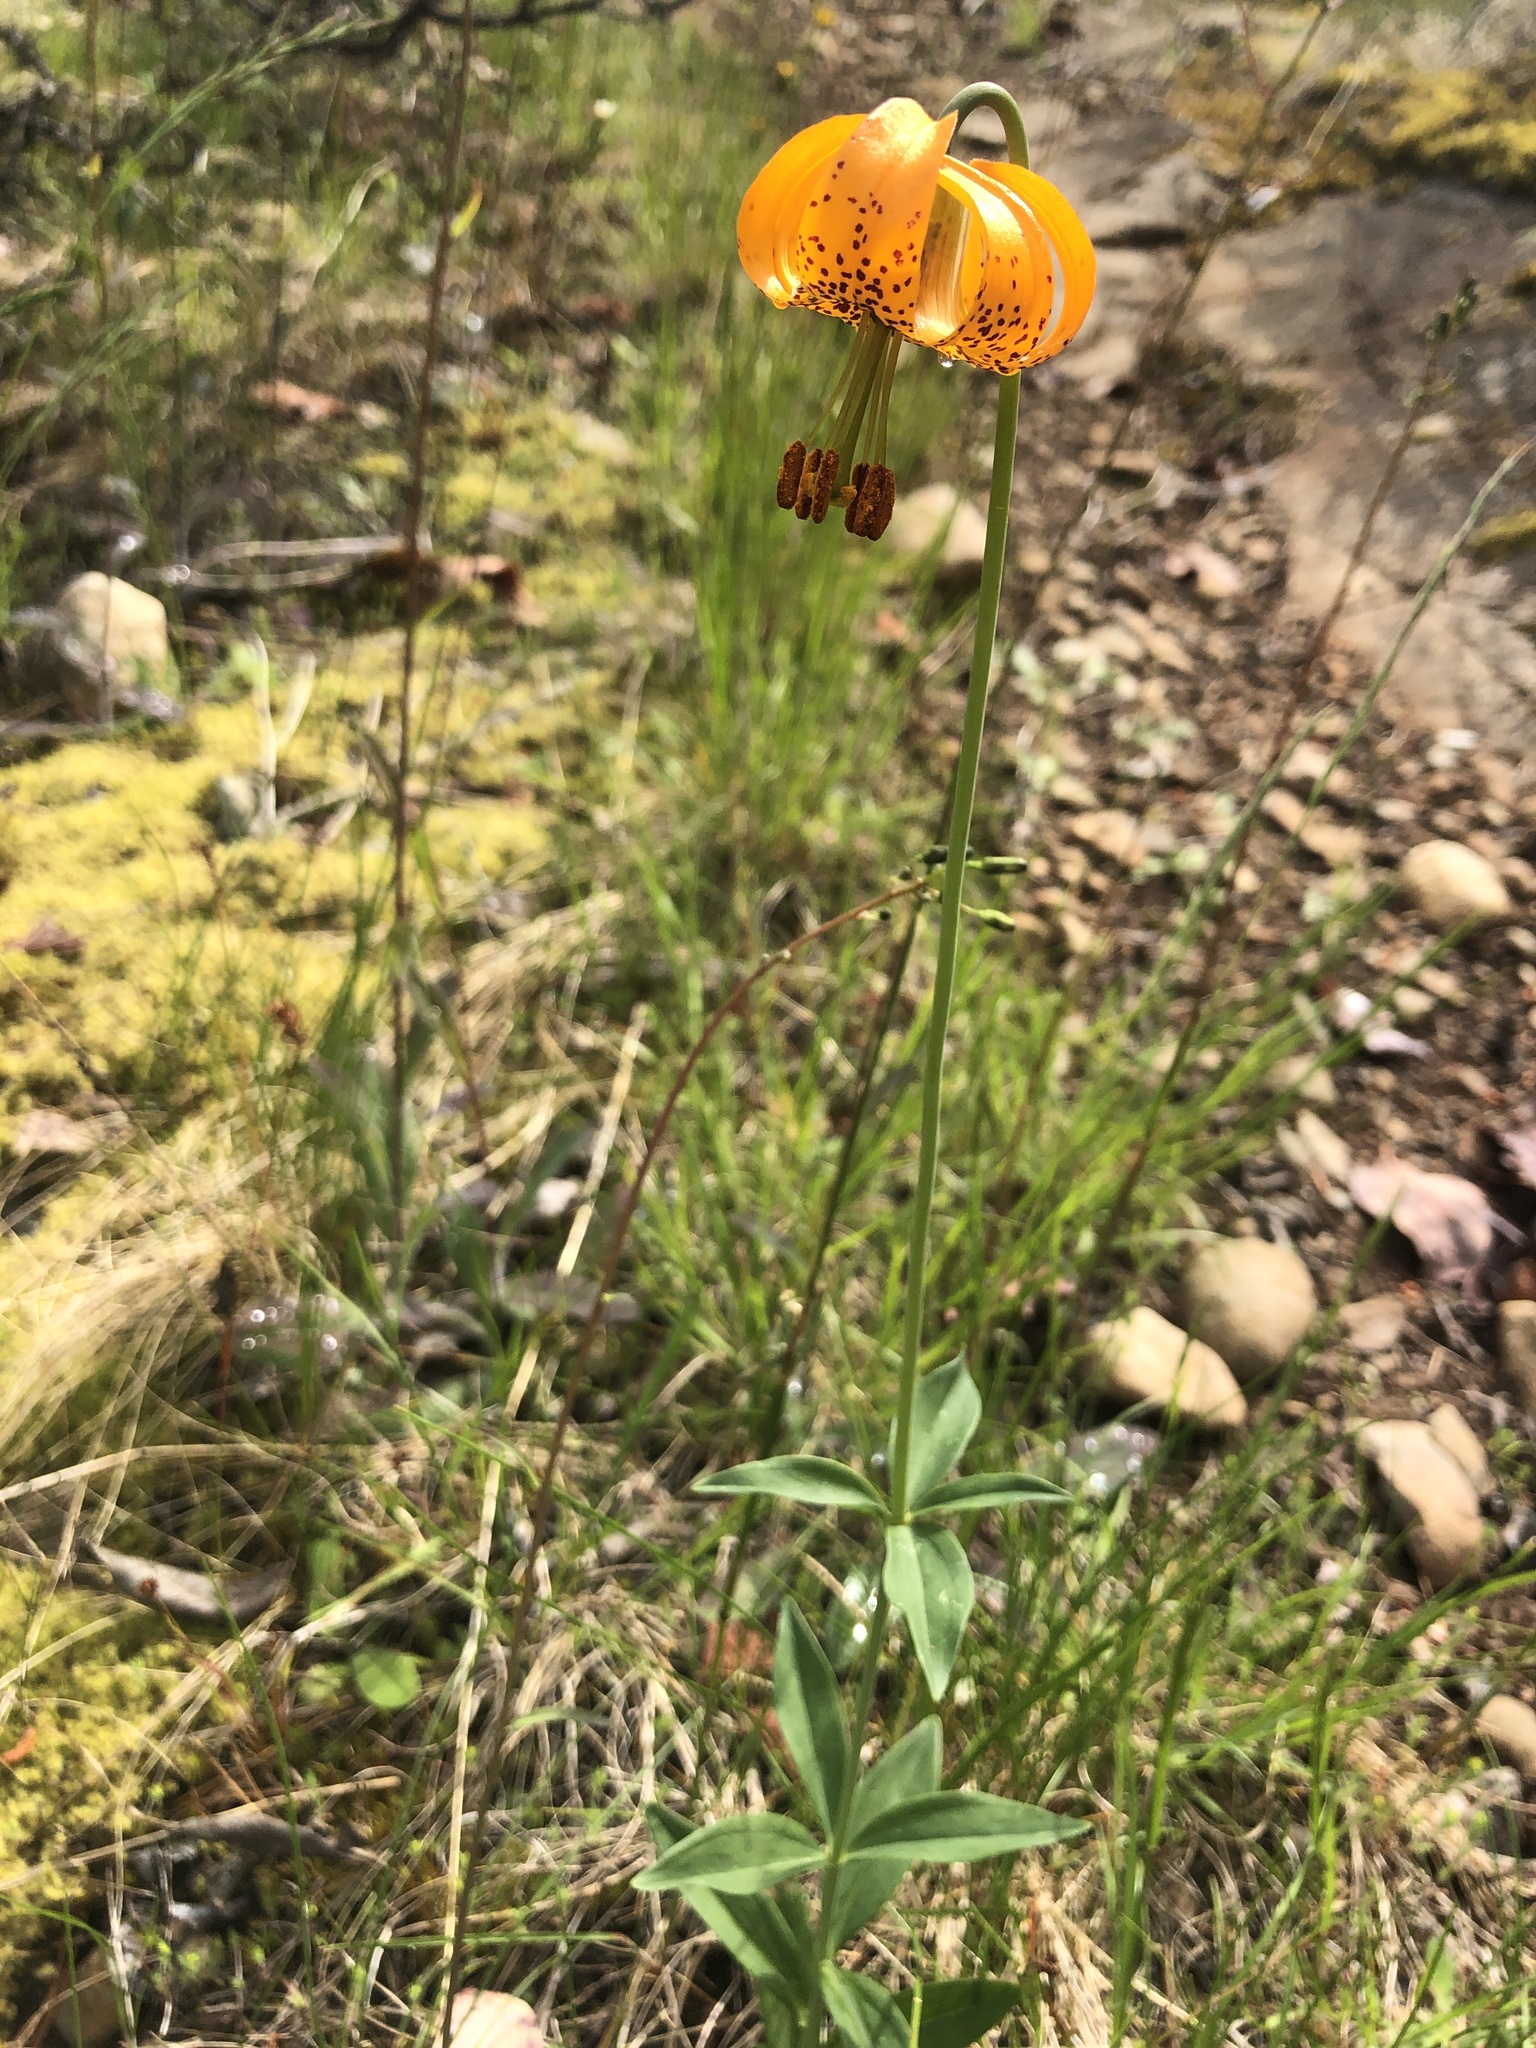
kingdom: Plantae
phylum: Tracheophyta
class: Liliopsida
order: Liliales
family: Liliaceae
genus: Lilium
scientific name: Lilium columbianum
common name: Columbia lily
